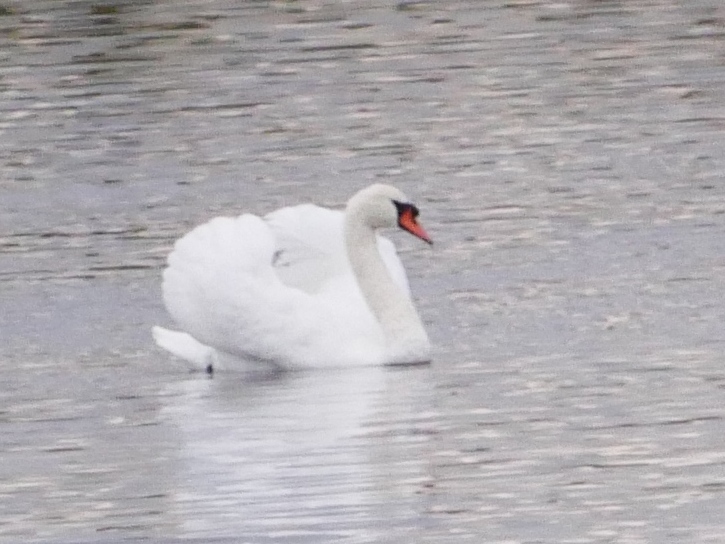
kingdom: Animalia
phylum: Chordata
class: Aves
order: Anseriformes
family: Anatidae
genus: Cygnus
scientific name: Cygnus olor
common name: Mute swan
